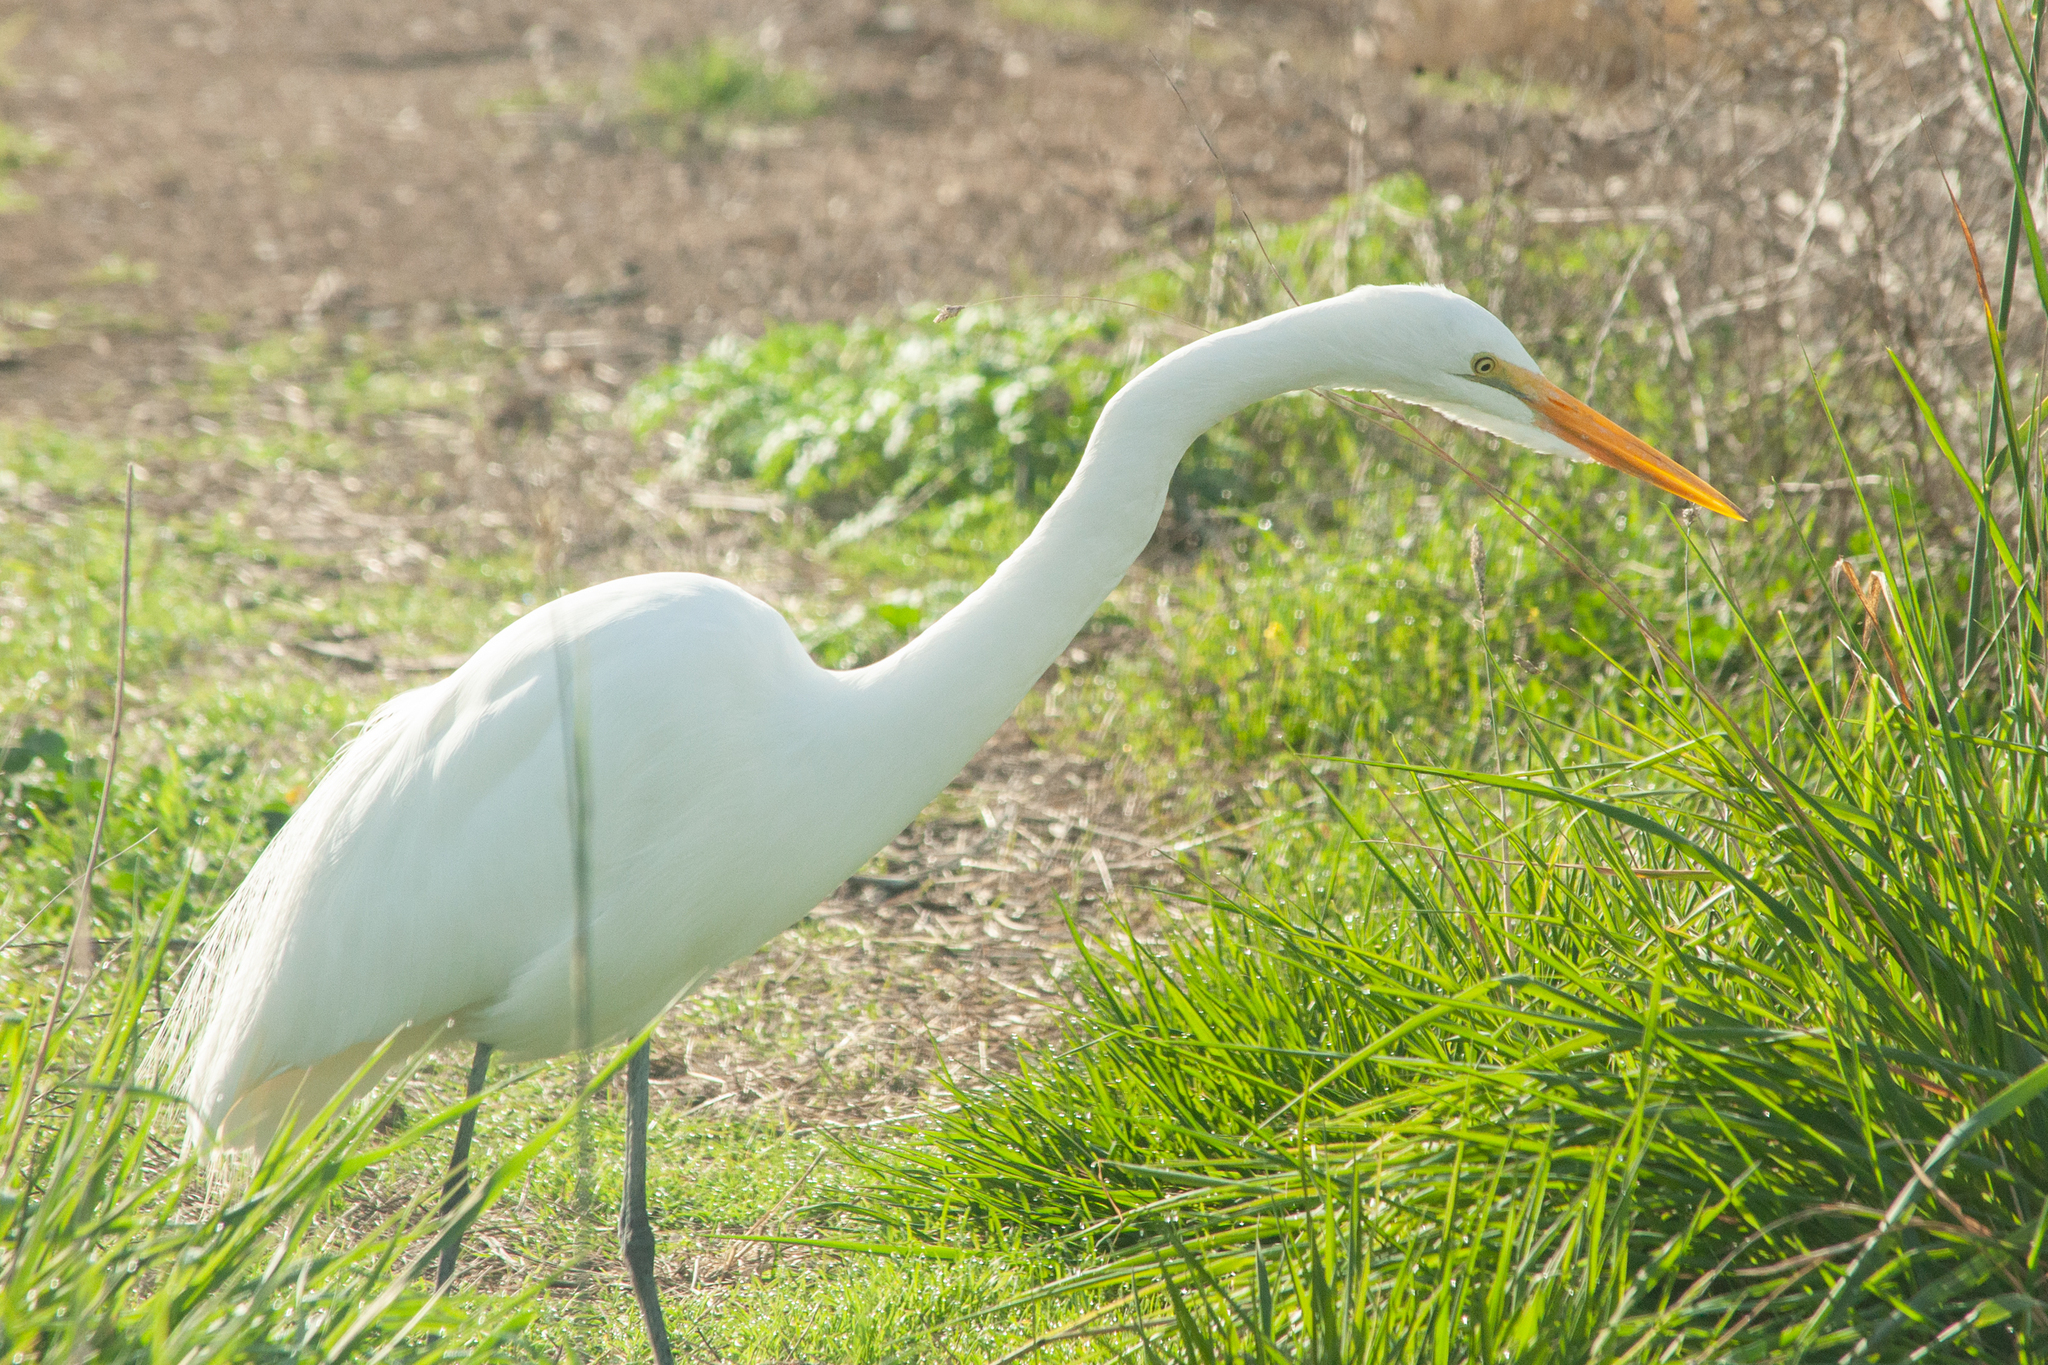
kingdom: Animalia
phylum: Chordata
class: Aves
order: Pelecaniformes
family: Ardeidae
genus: Ardea
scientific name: Ardea alba
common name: Great egret
